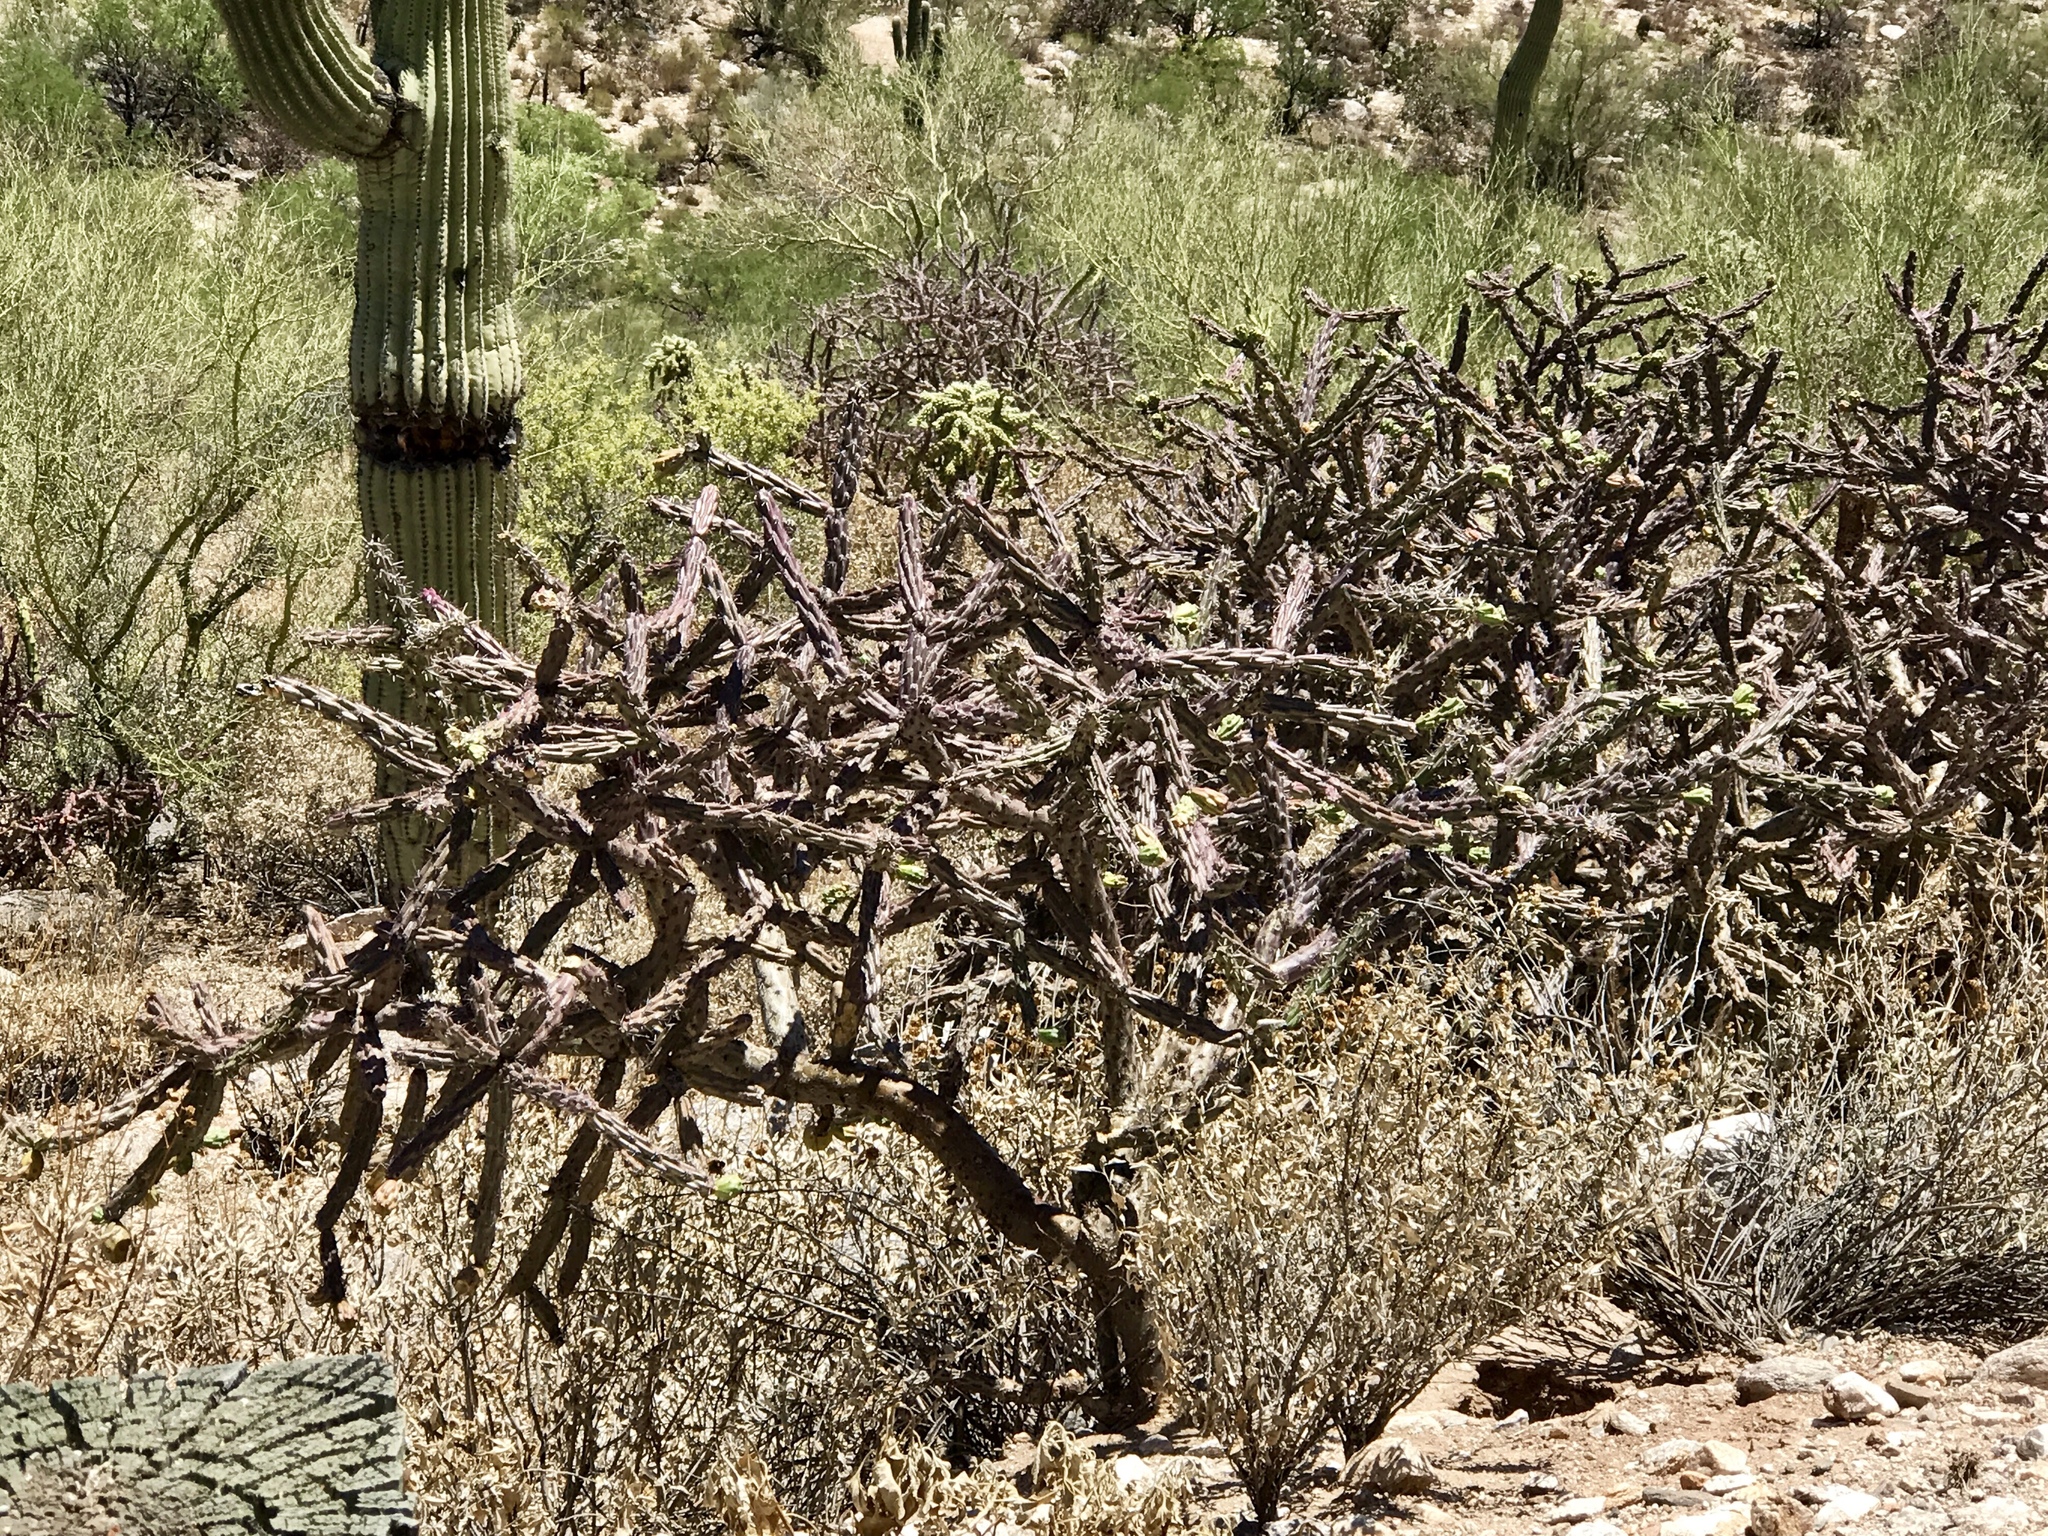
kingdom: Plantae
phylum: Tracheophyta
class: Magnoliopsida
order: Caryophyllales
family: Cactaceae
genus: Cylindropuntia
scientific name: Cylindropuntia thurberi
